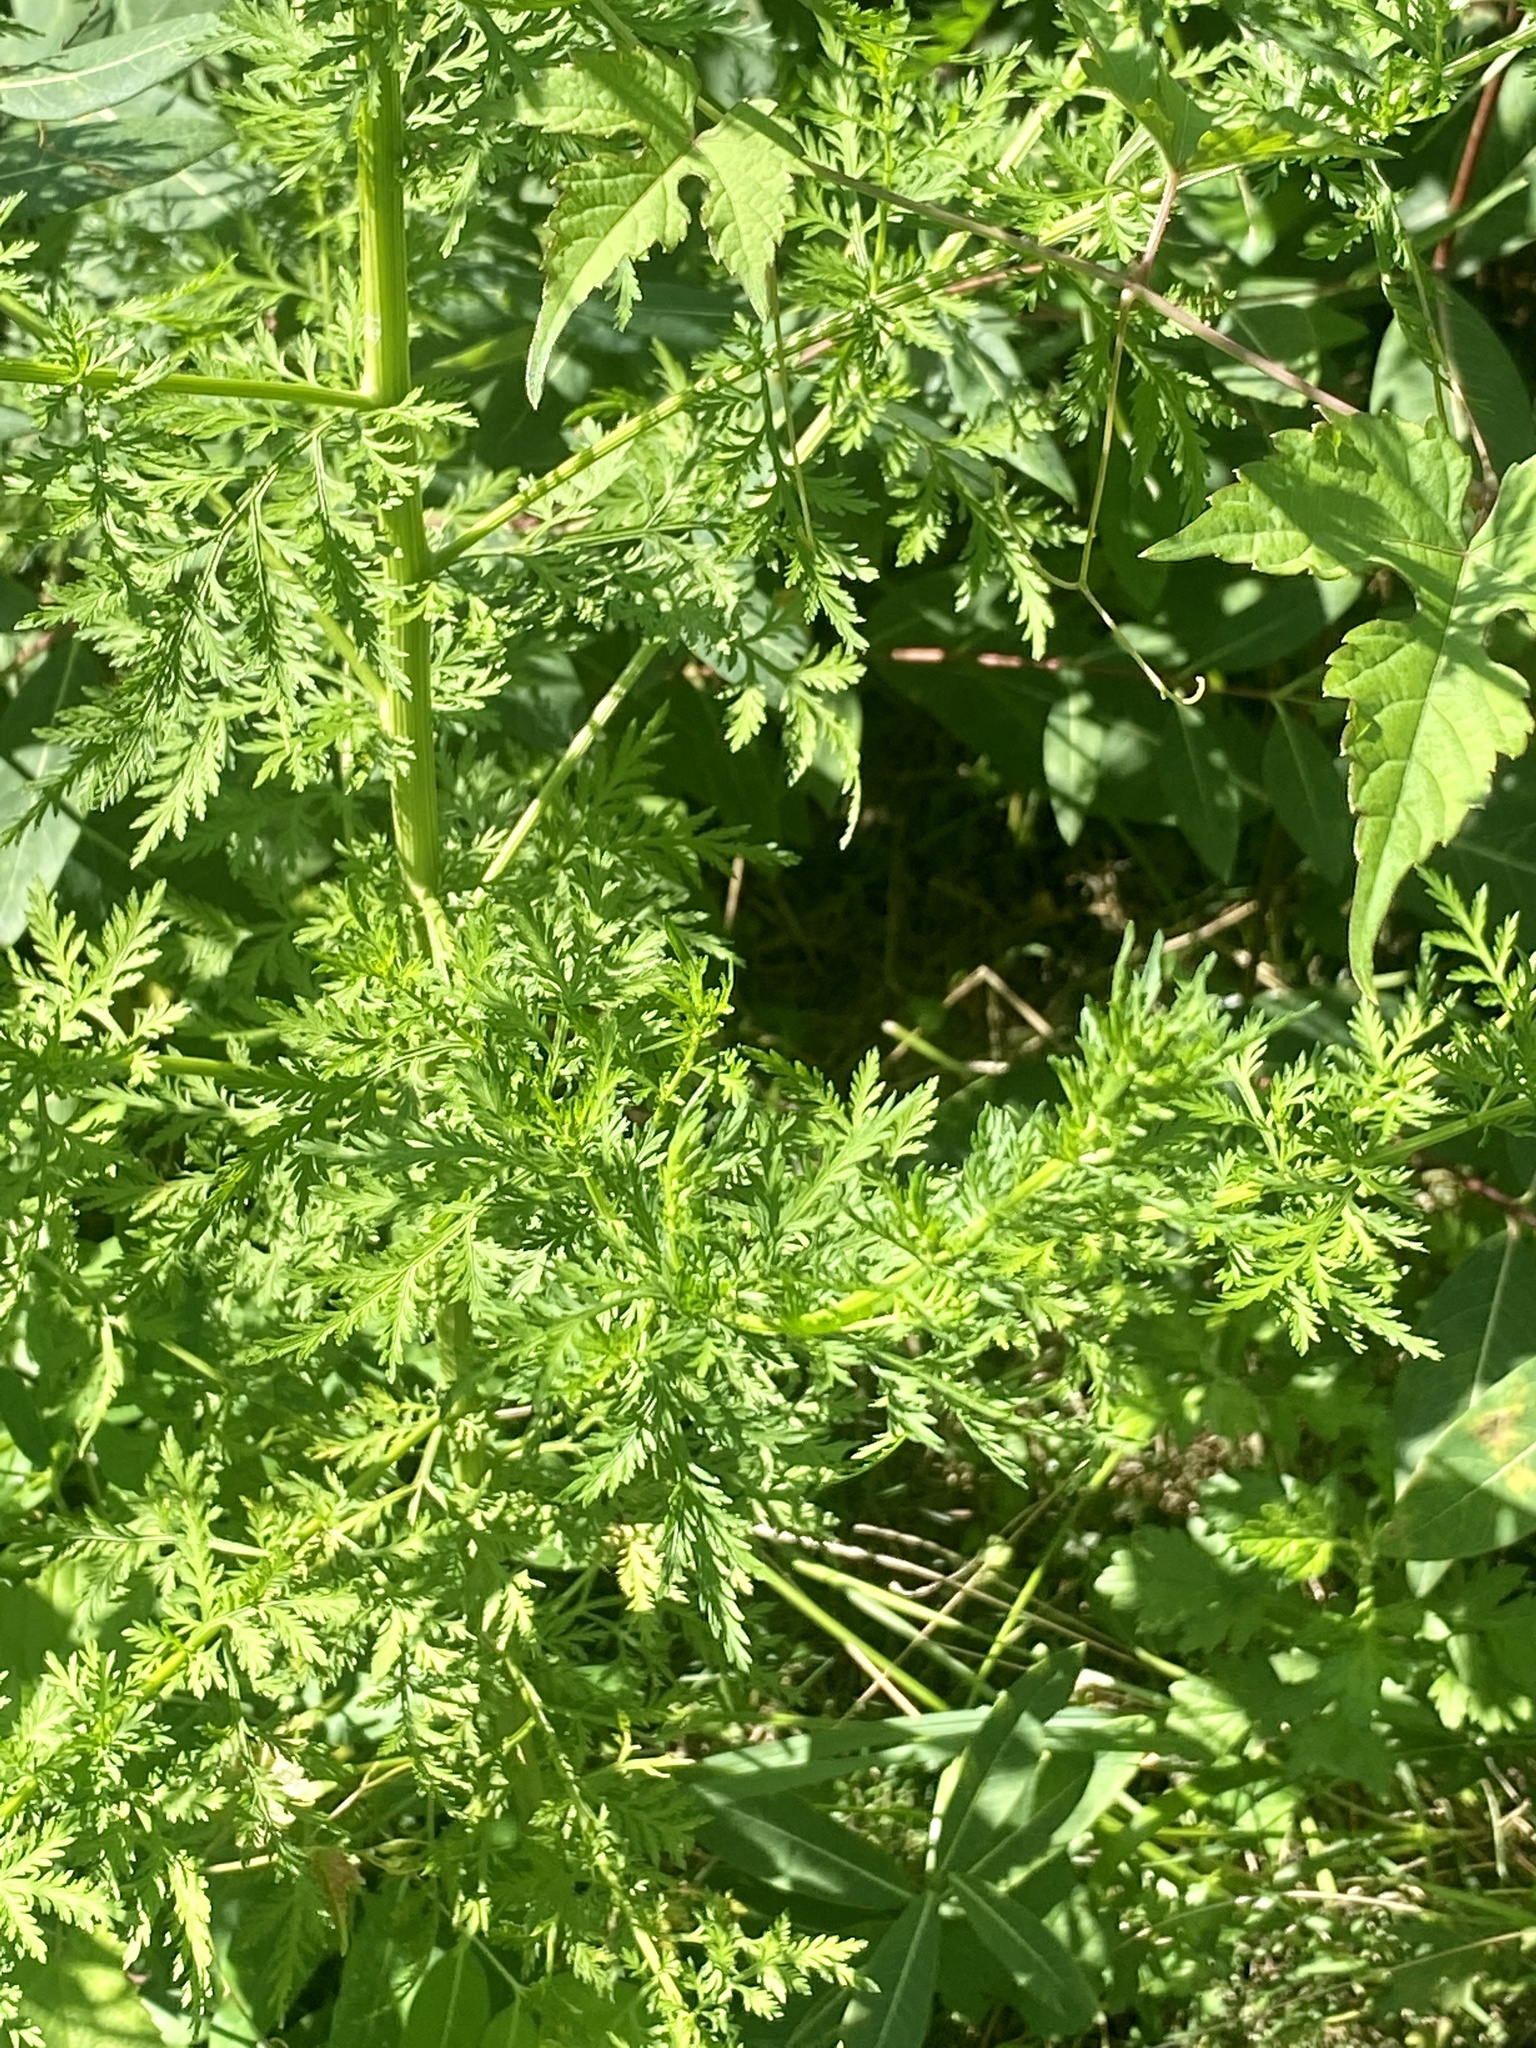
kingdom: Plantae
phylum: Tracheophyta
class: Magnoliopsida
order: Asterales
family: Asteraceae
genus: Artemisia
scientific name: Artemisia annua
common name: Sweet sagewort
